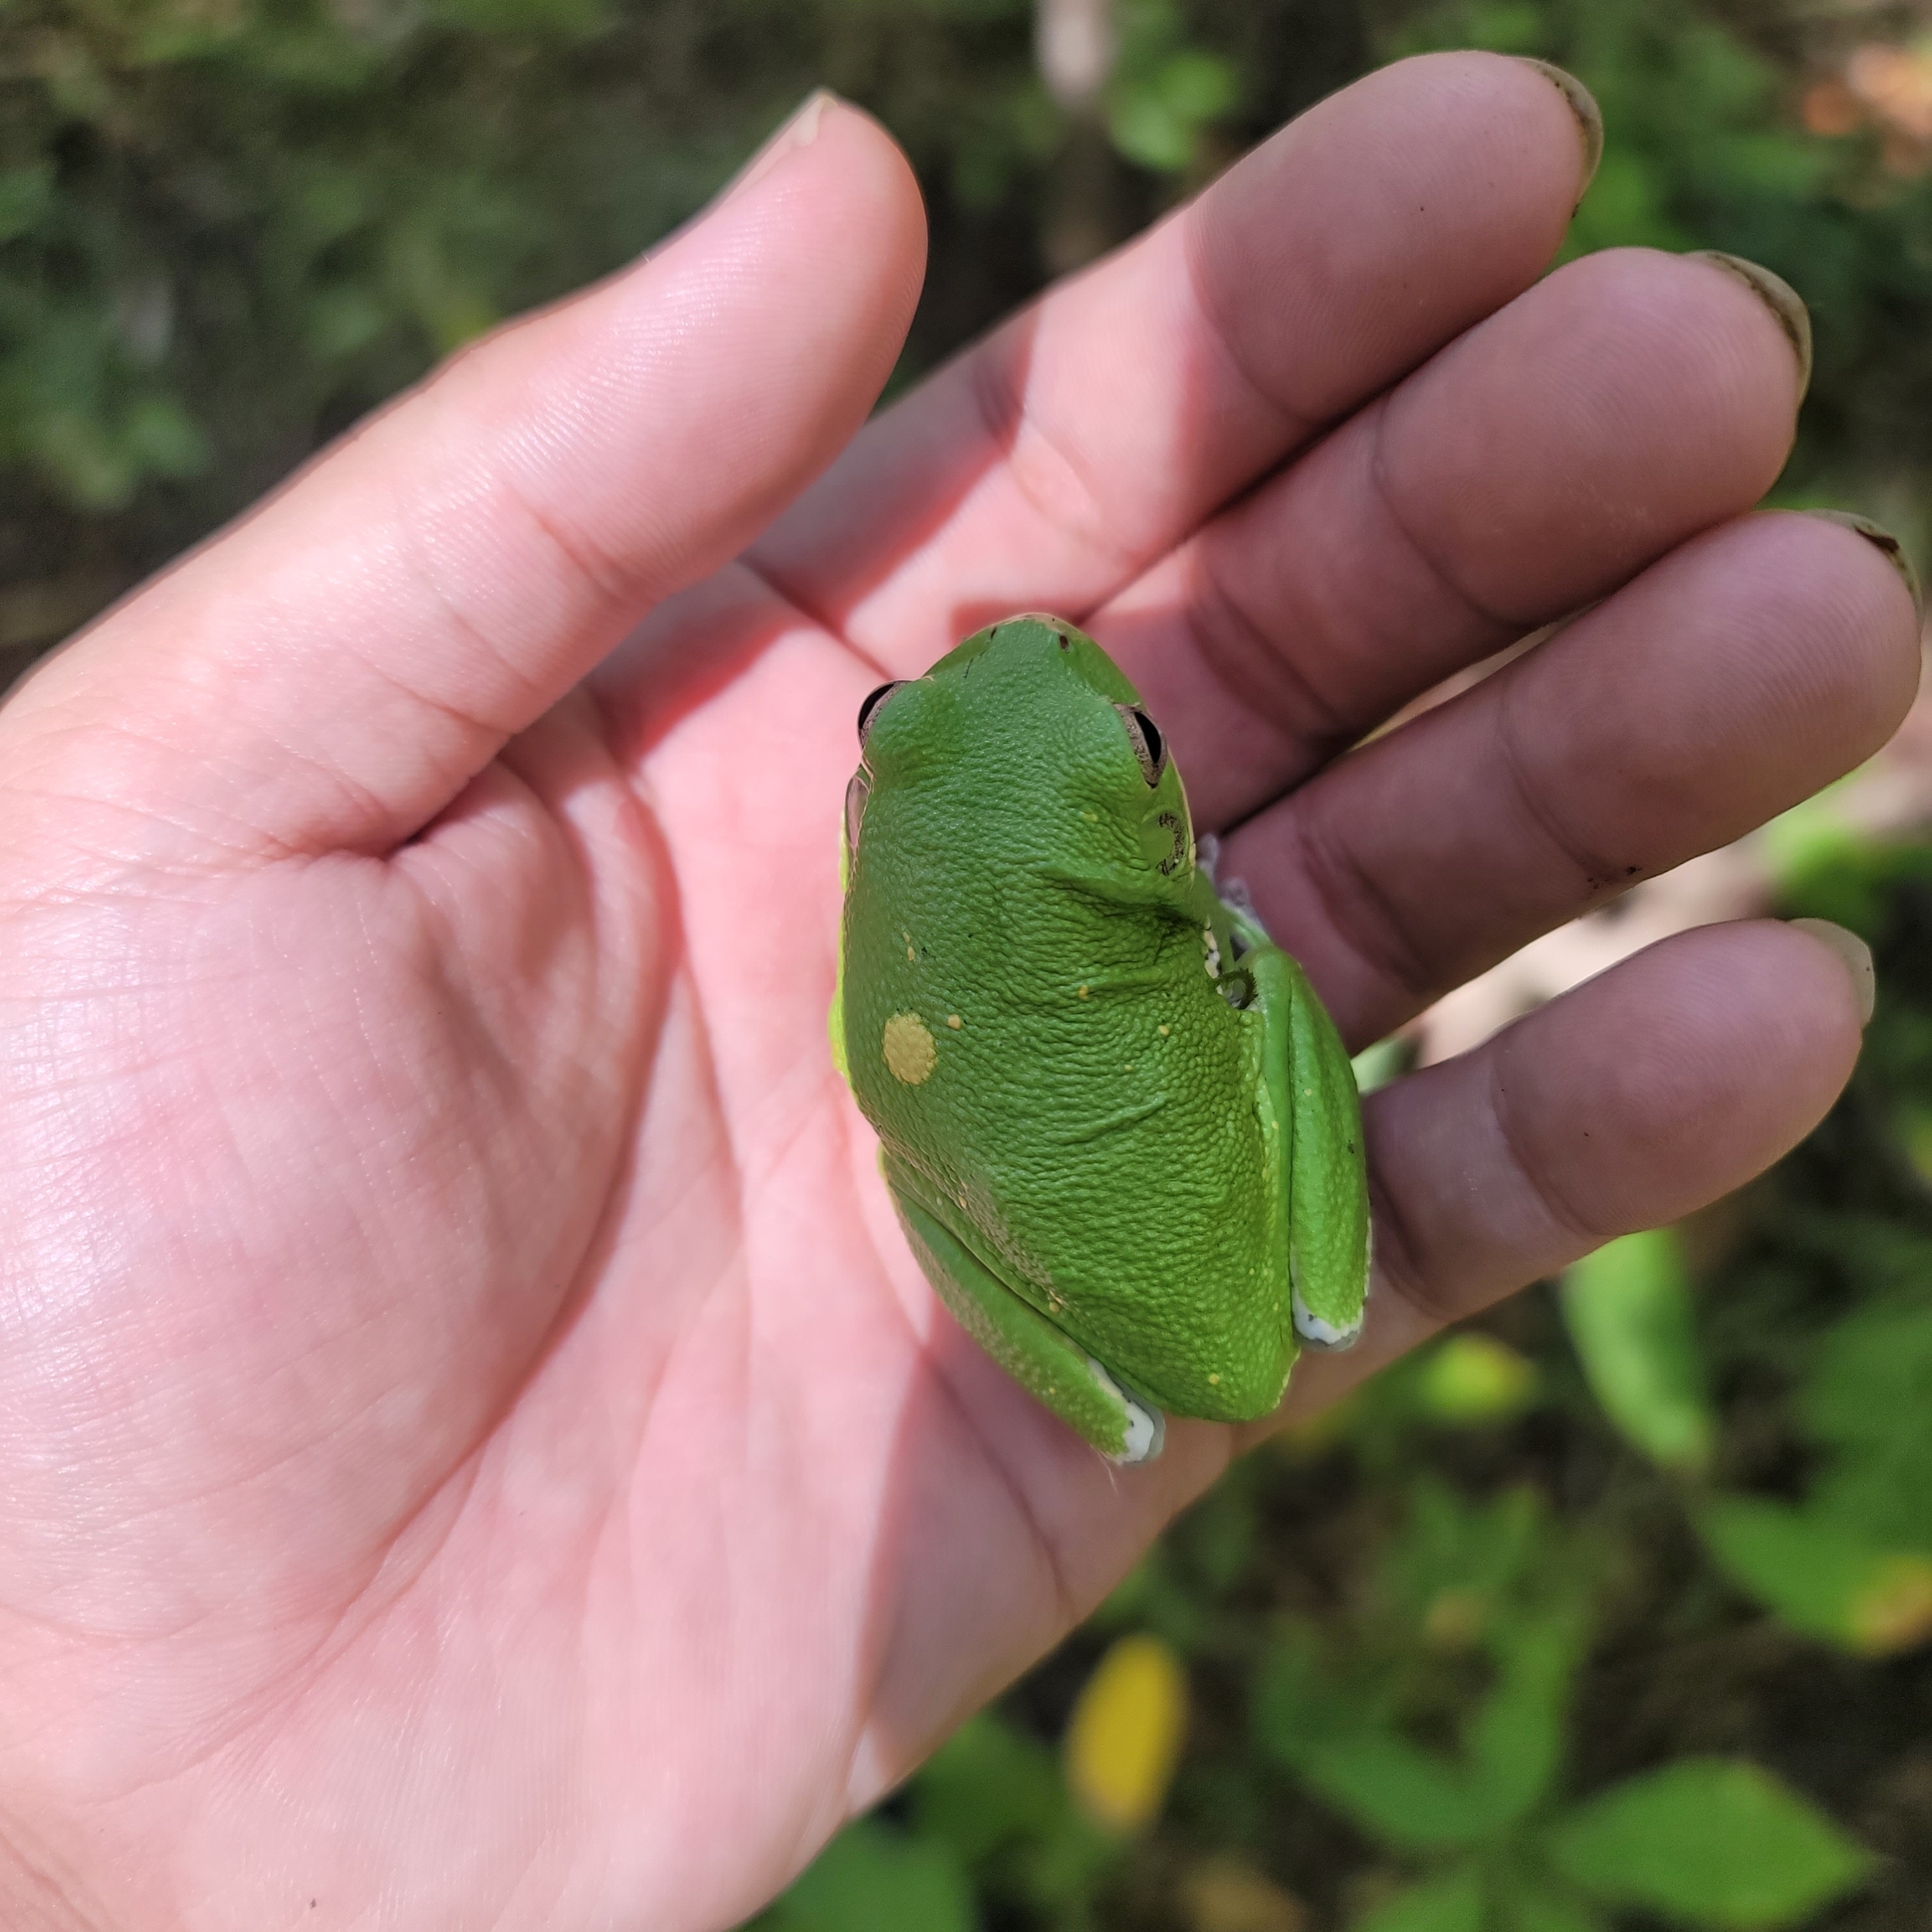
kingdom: Animalia
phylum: Chordata
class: Amphibia
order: Anura
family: Hylidae
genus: Dryophytes
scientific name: Dryophytes gratiosus
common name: Barking treefrog
